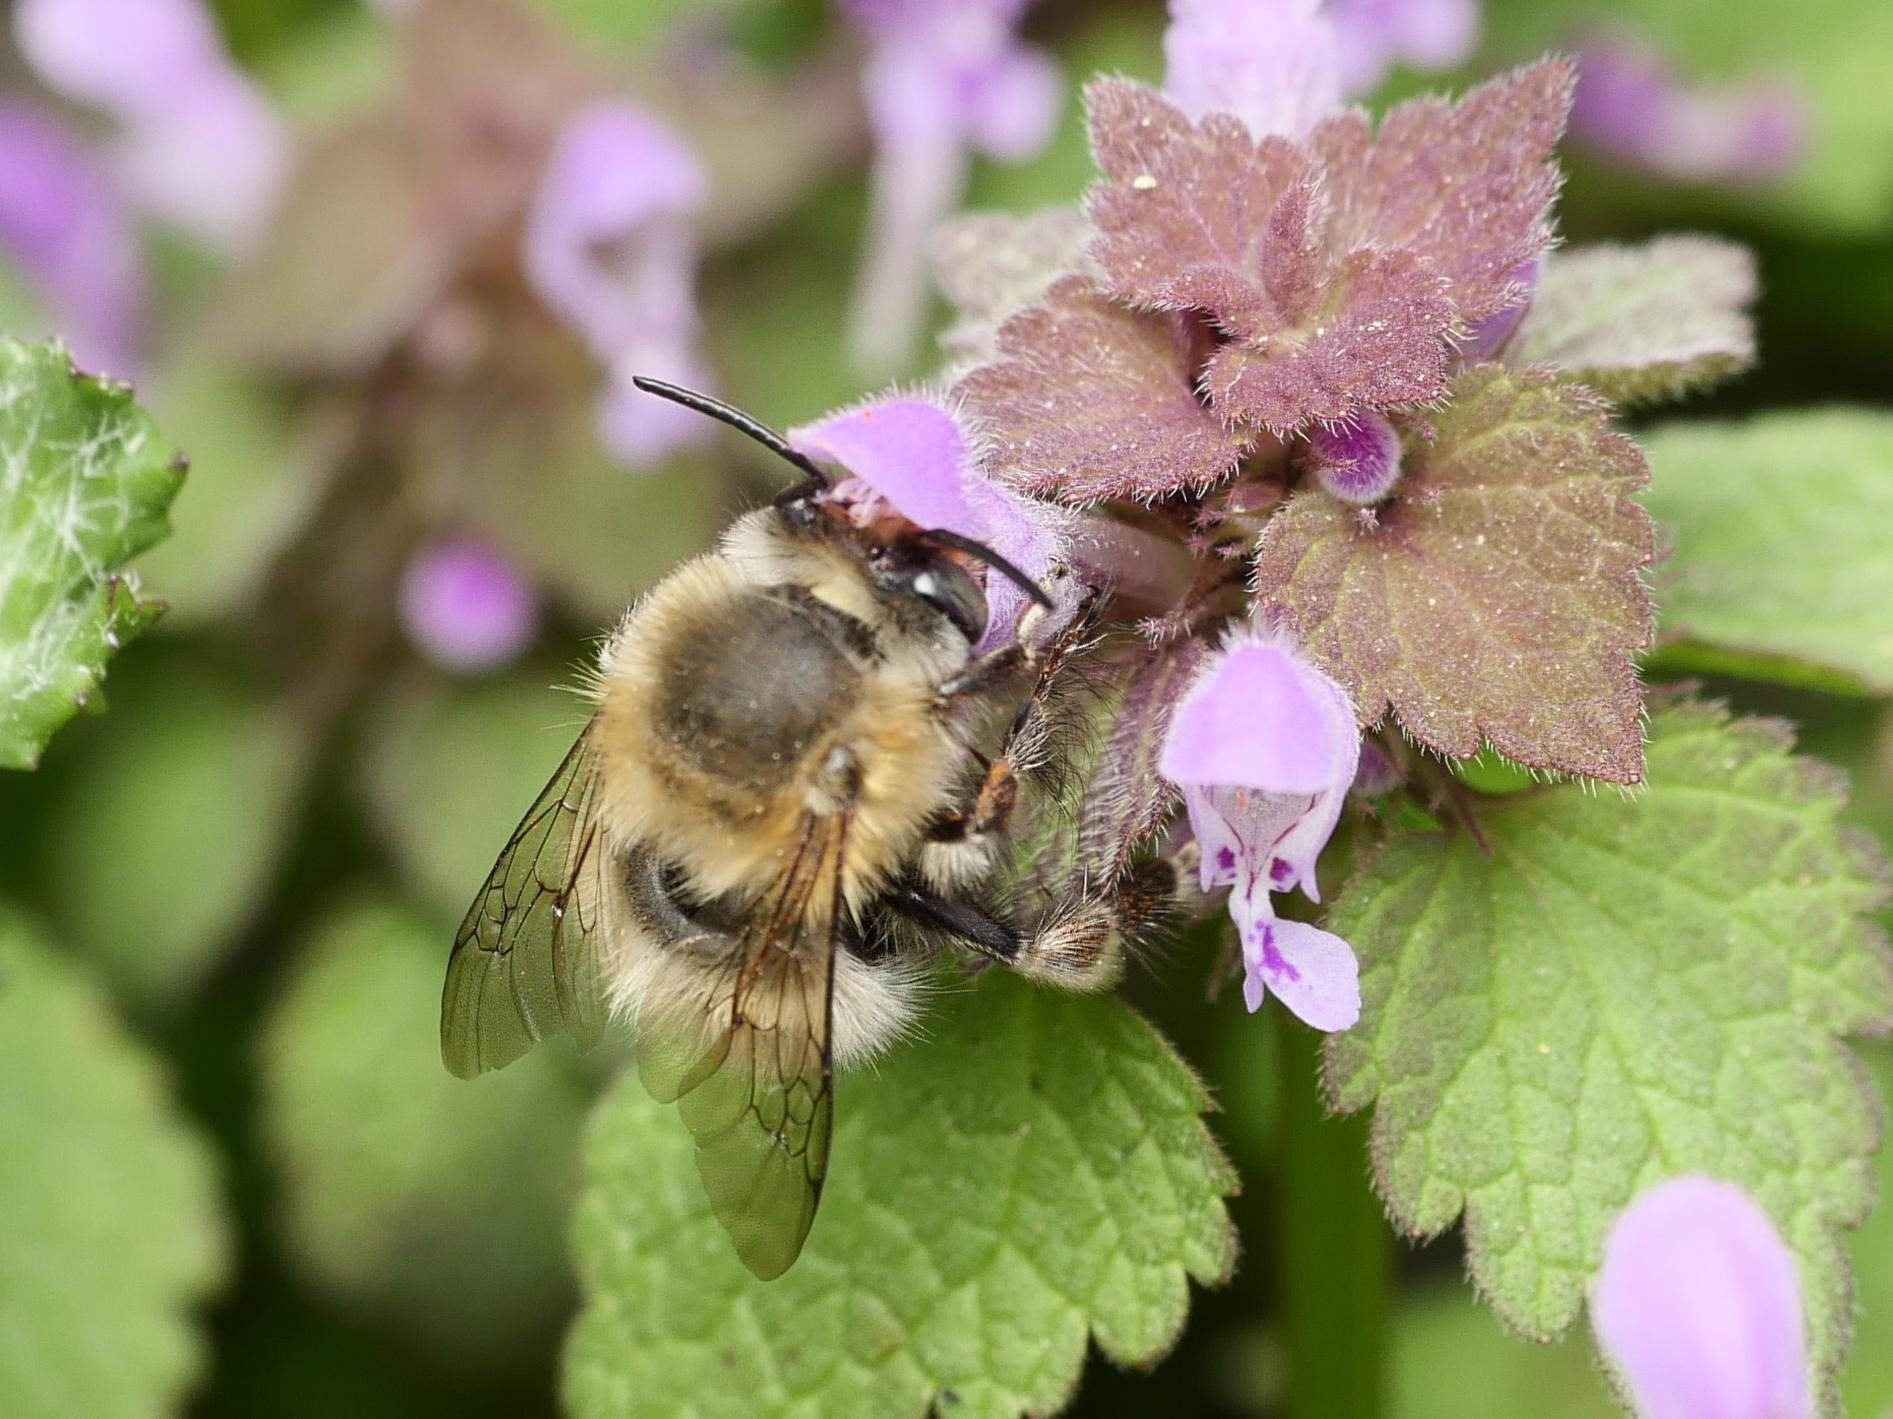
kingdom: Animalia
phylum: Arthropoda
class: Insecta
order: Hymenoptera
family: Apidae
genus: Anthophora
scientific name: Anthophora plumipes
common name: Hairy-footed flower bee
